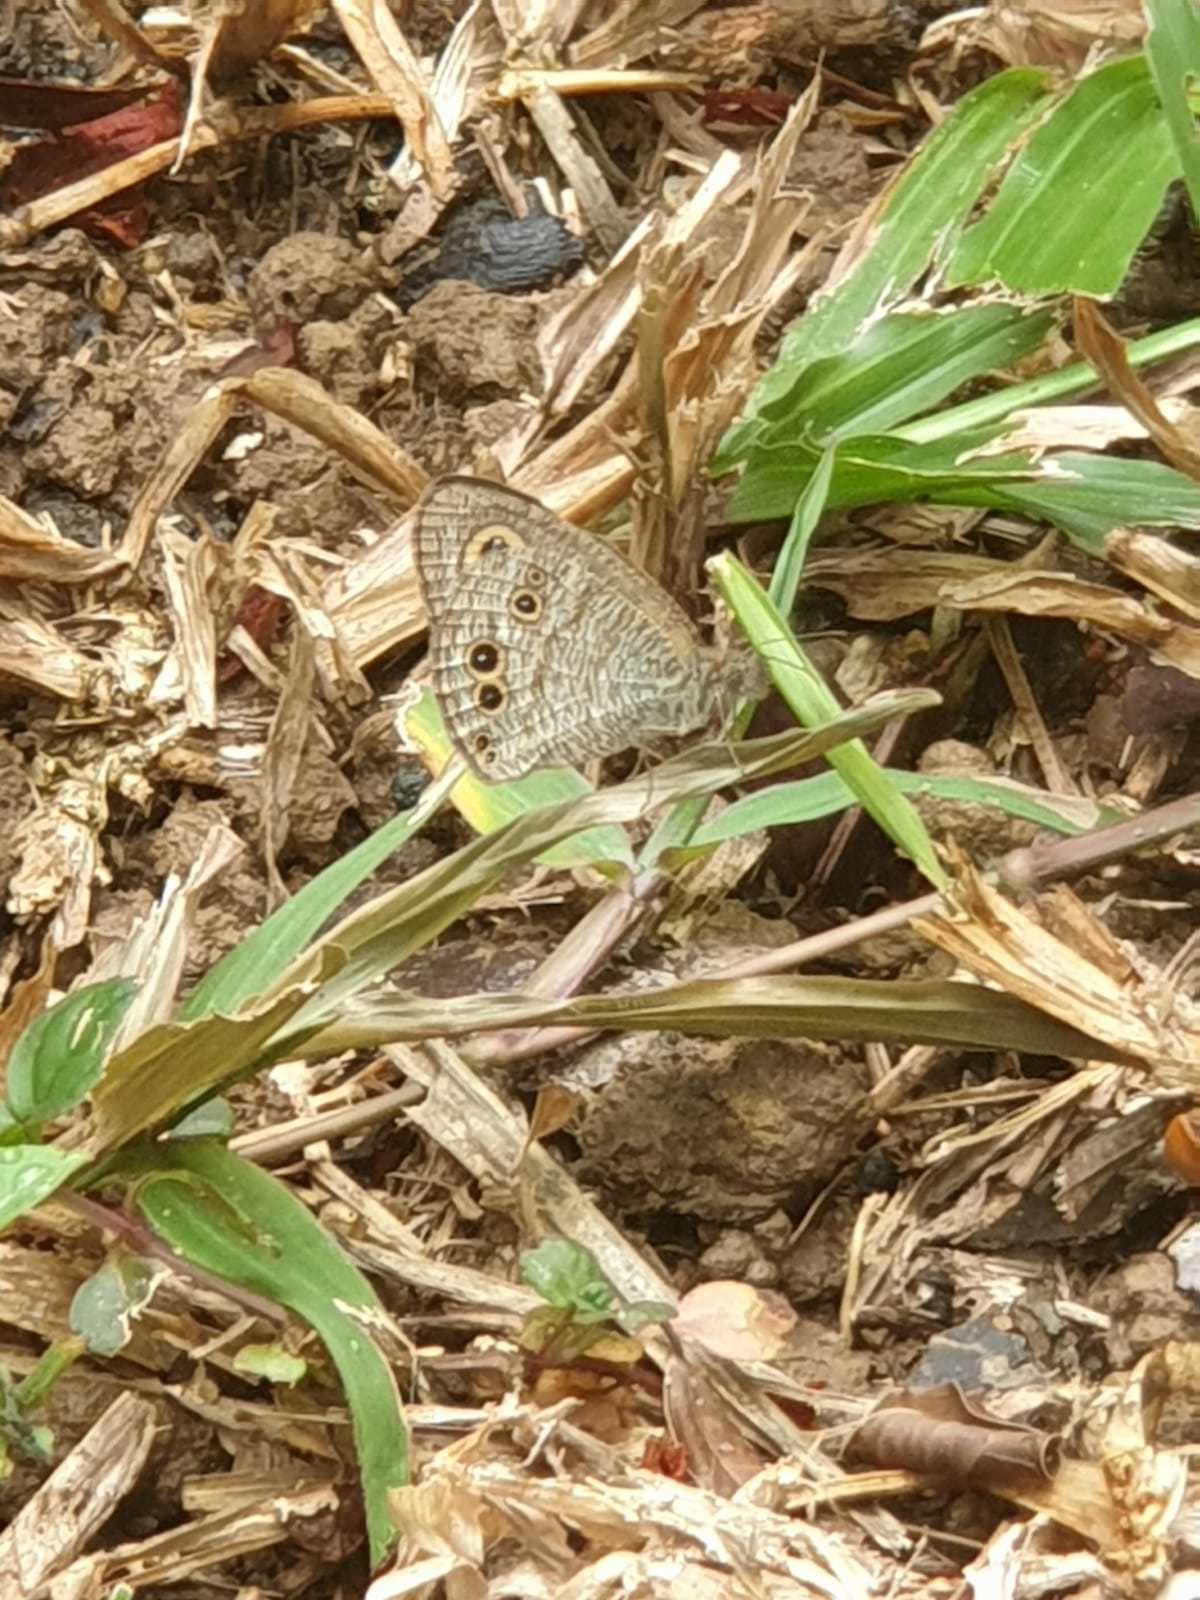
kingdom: Animalia
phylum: Arthropoda
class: Insecta
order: Lepidoptera
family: Nymphalidae
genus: Ypthima
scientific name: Ypthima huebneri
